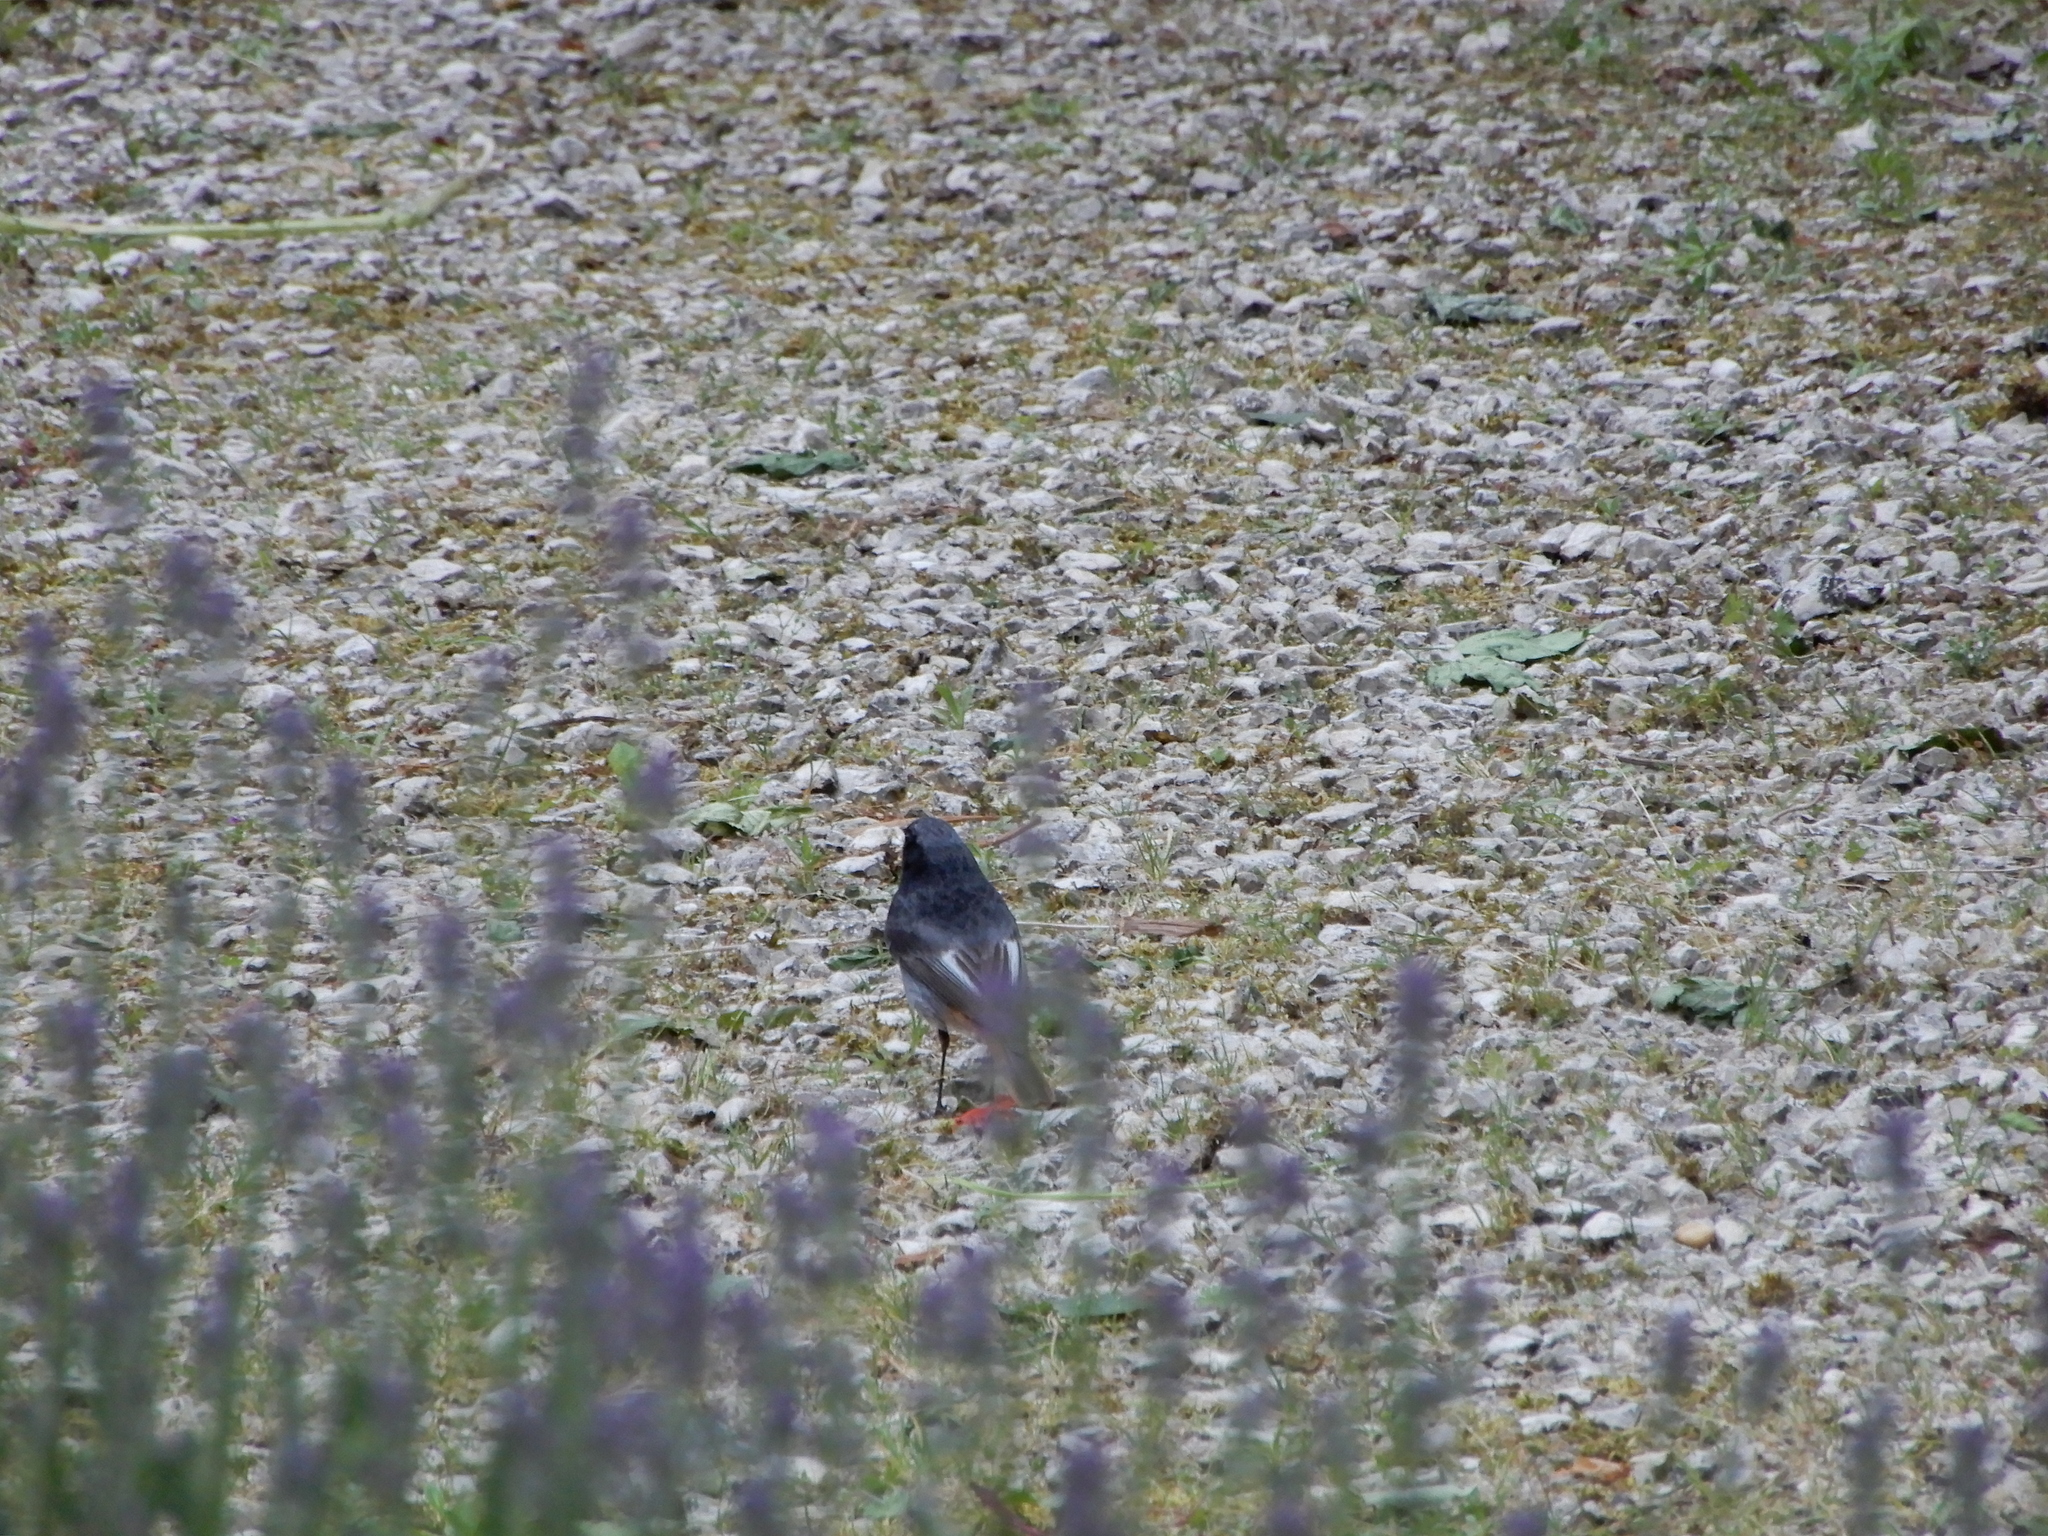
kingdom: Animalia
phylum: Chordata
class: Aves
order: Passeriformes
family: Muscicapidae
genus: Phoenicurus
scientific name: Phoenicurus ochruros
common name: Black redstart
